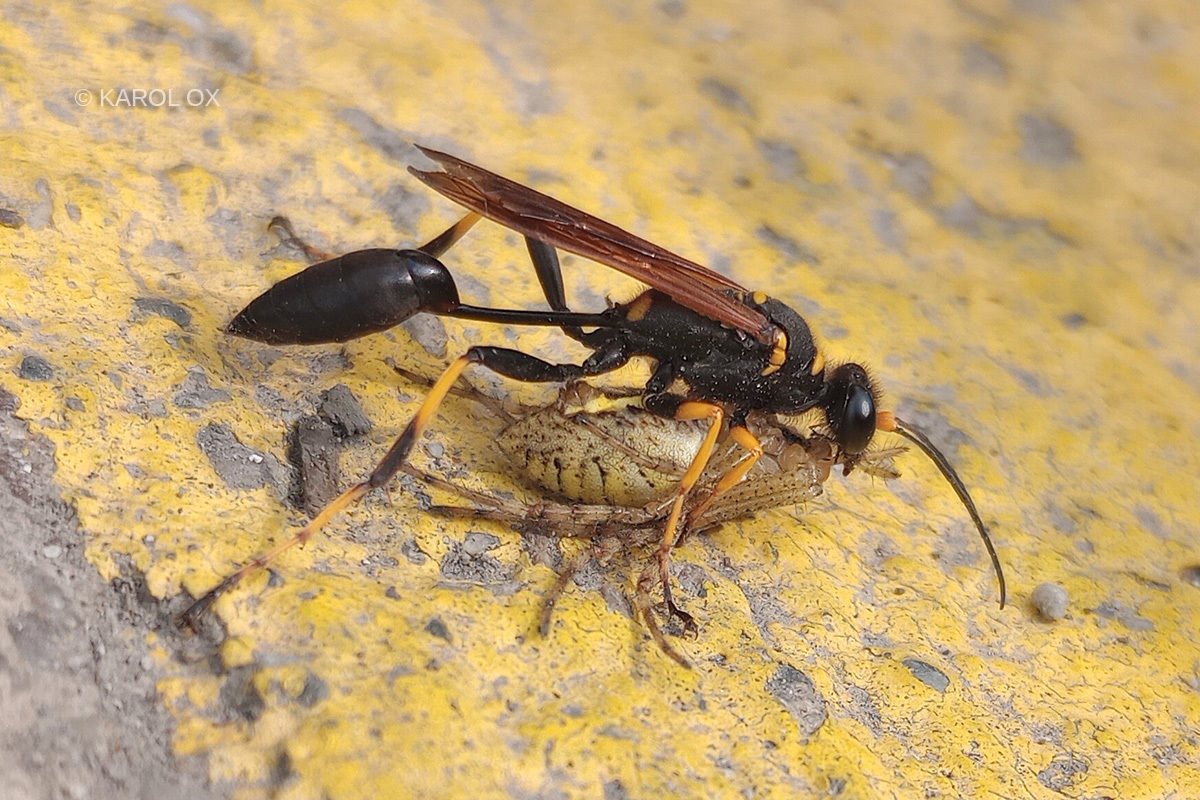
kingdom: Animalia
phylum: Arthropoda
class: Insecta
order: Hymenoptera
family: Sphecidae
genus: Sceliphron
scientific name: Sceliphron caementarium
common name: Mud dauber
